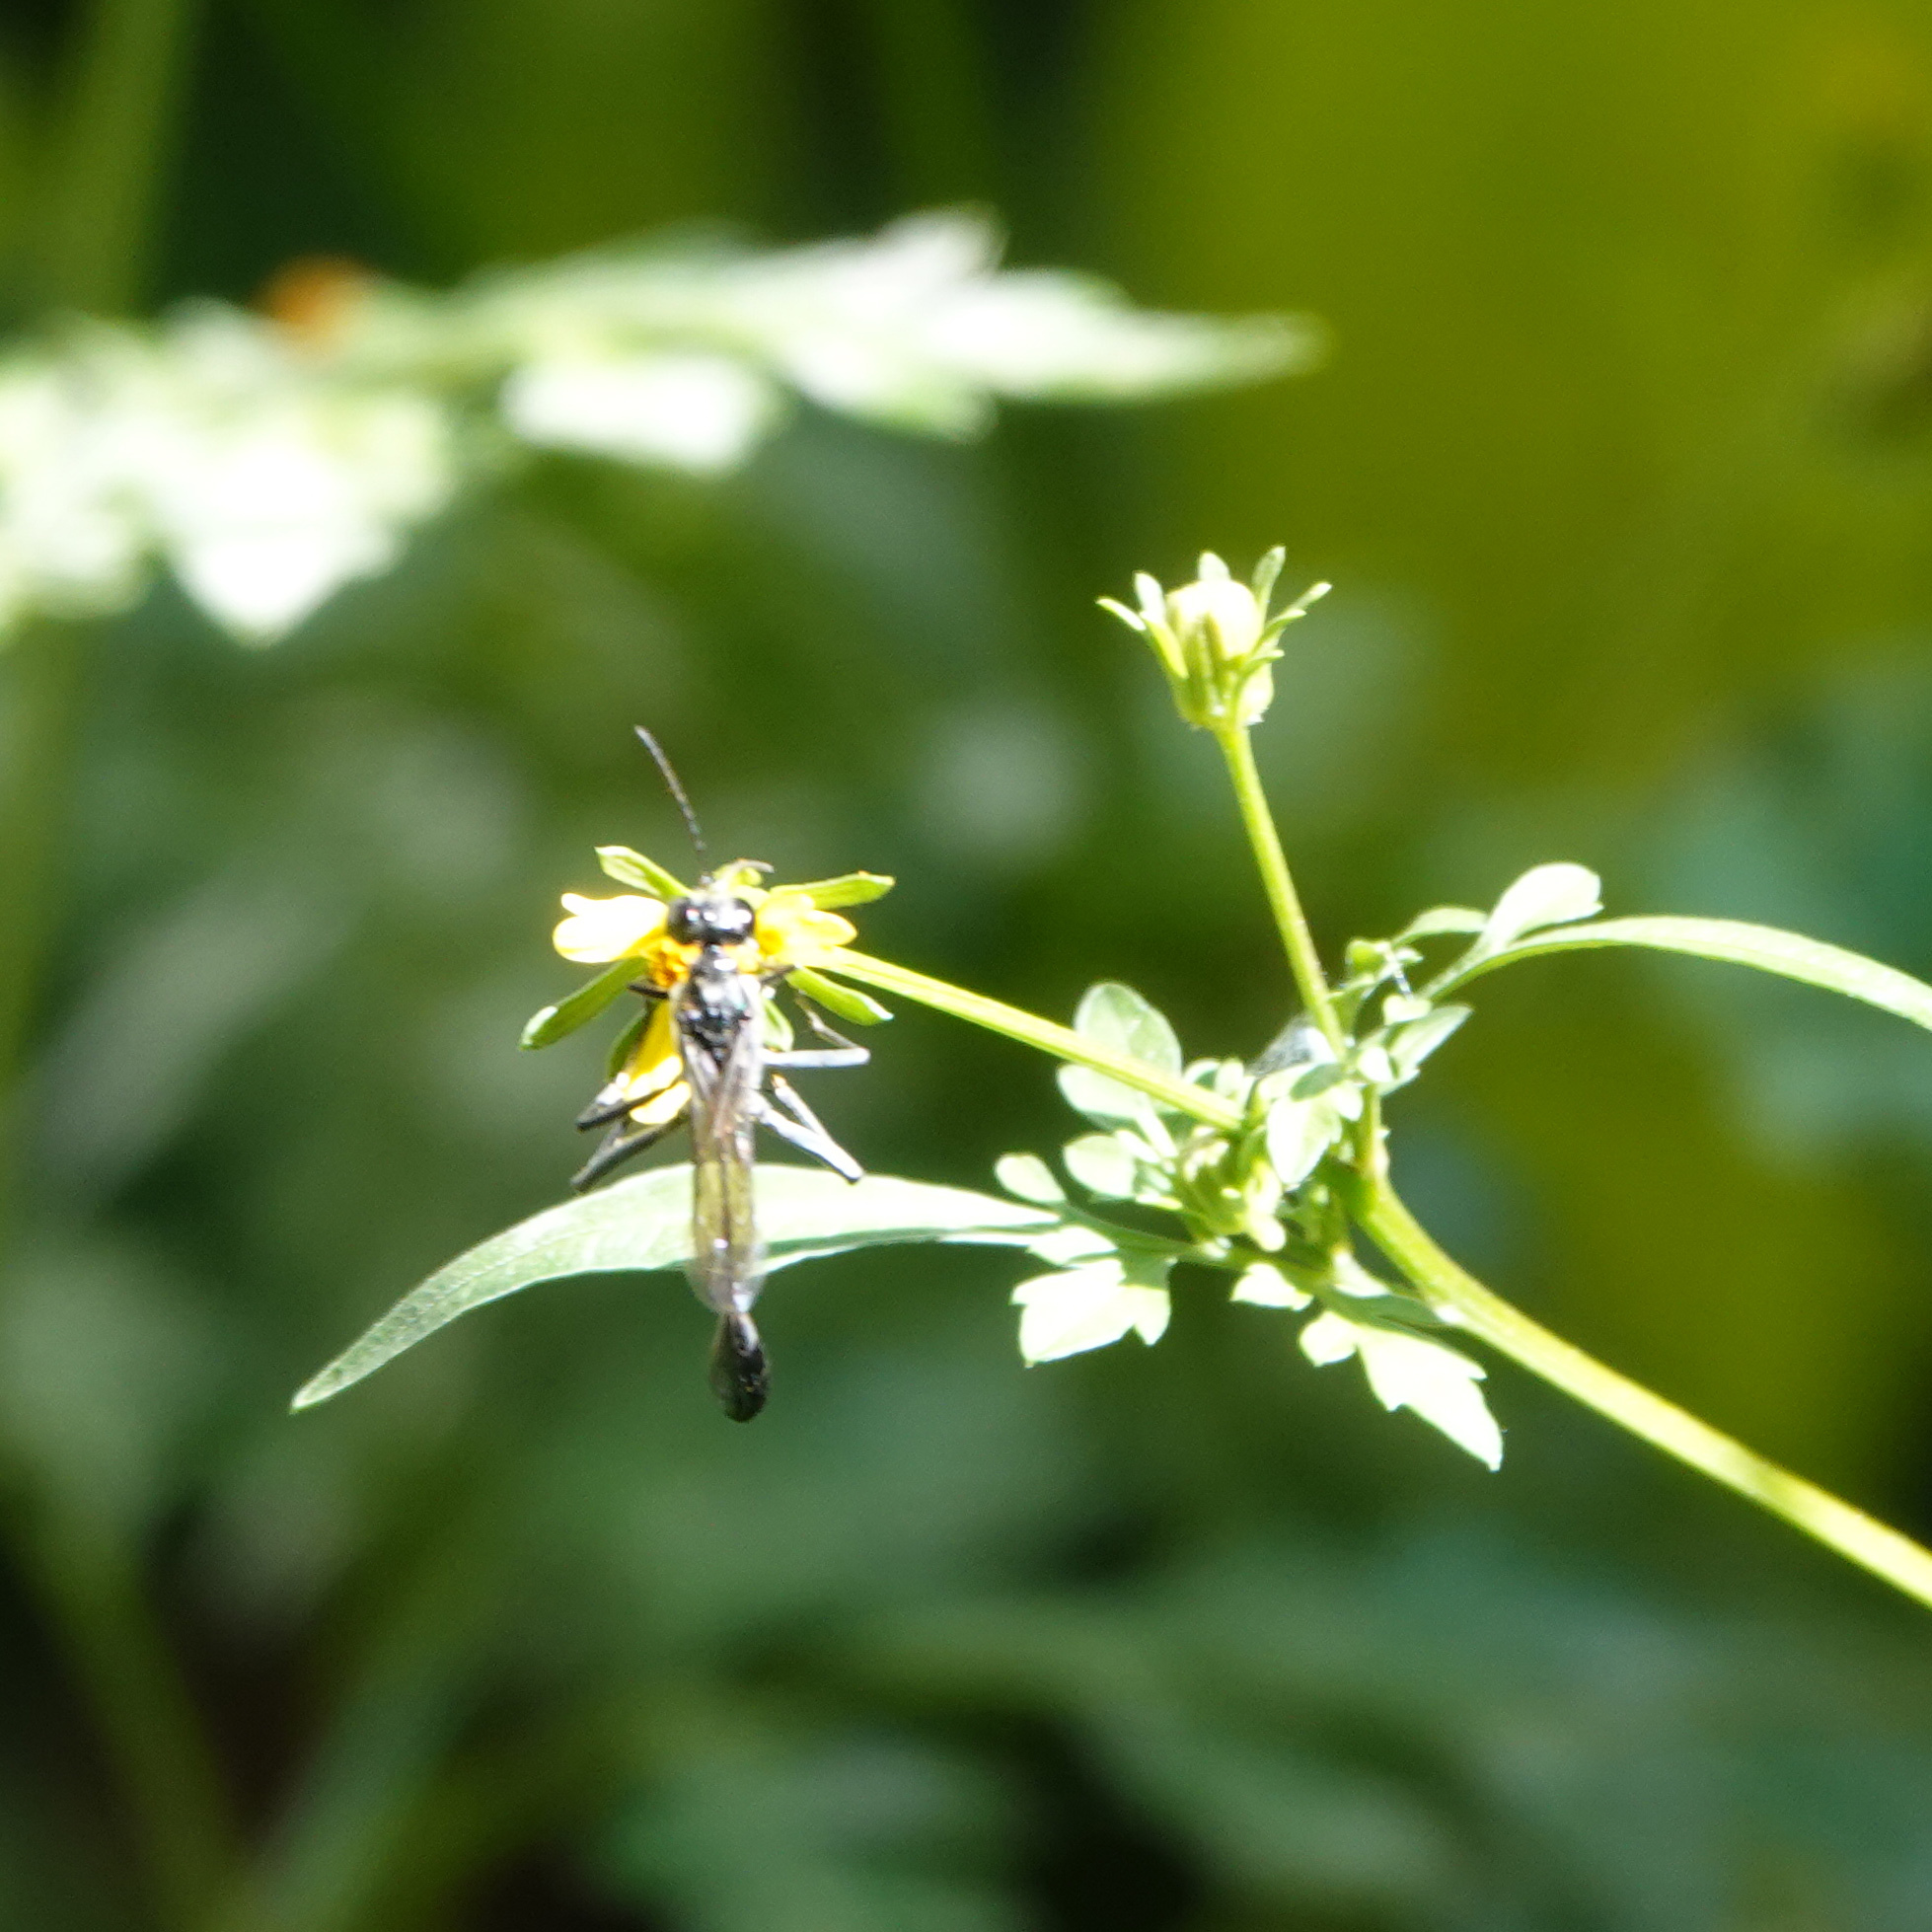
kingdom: Animalia
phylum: Arthropoda
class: Insecta
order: Hymenoptera
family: Sphecidae
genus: Eremnophila
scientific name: Eremnophila aureonotata
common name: Gold-marked thread-waisted wasp
